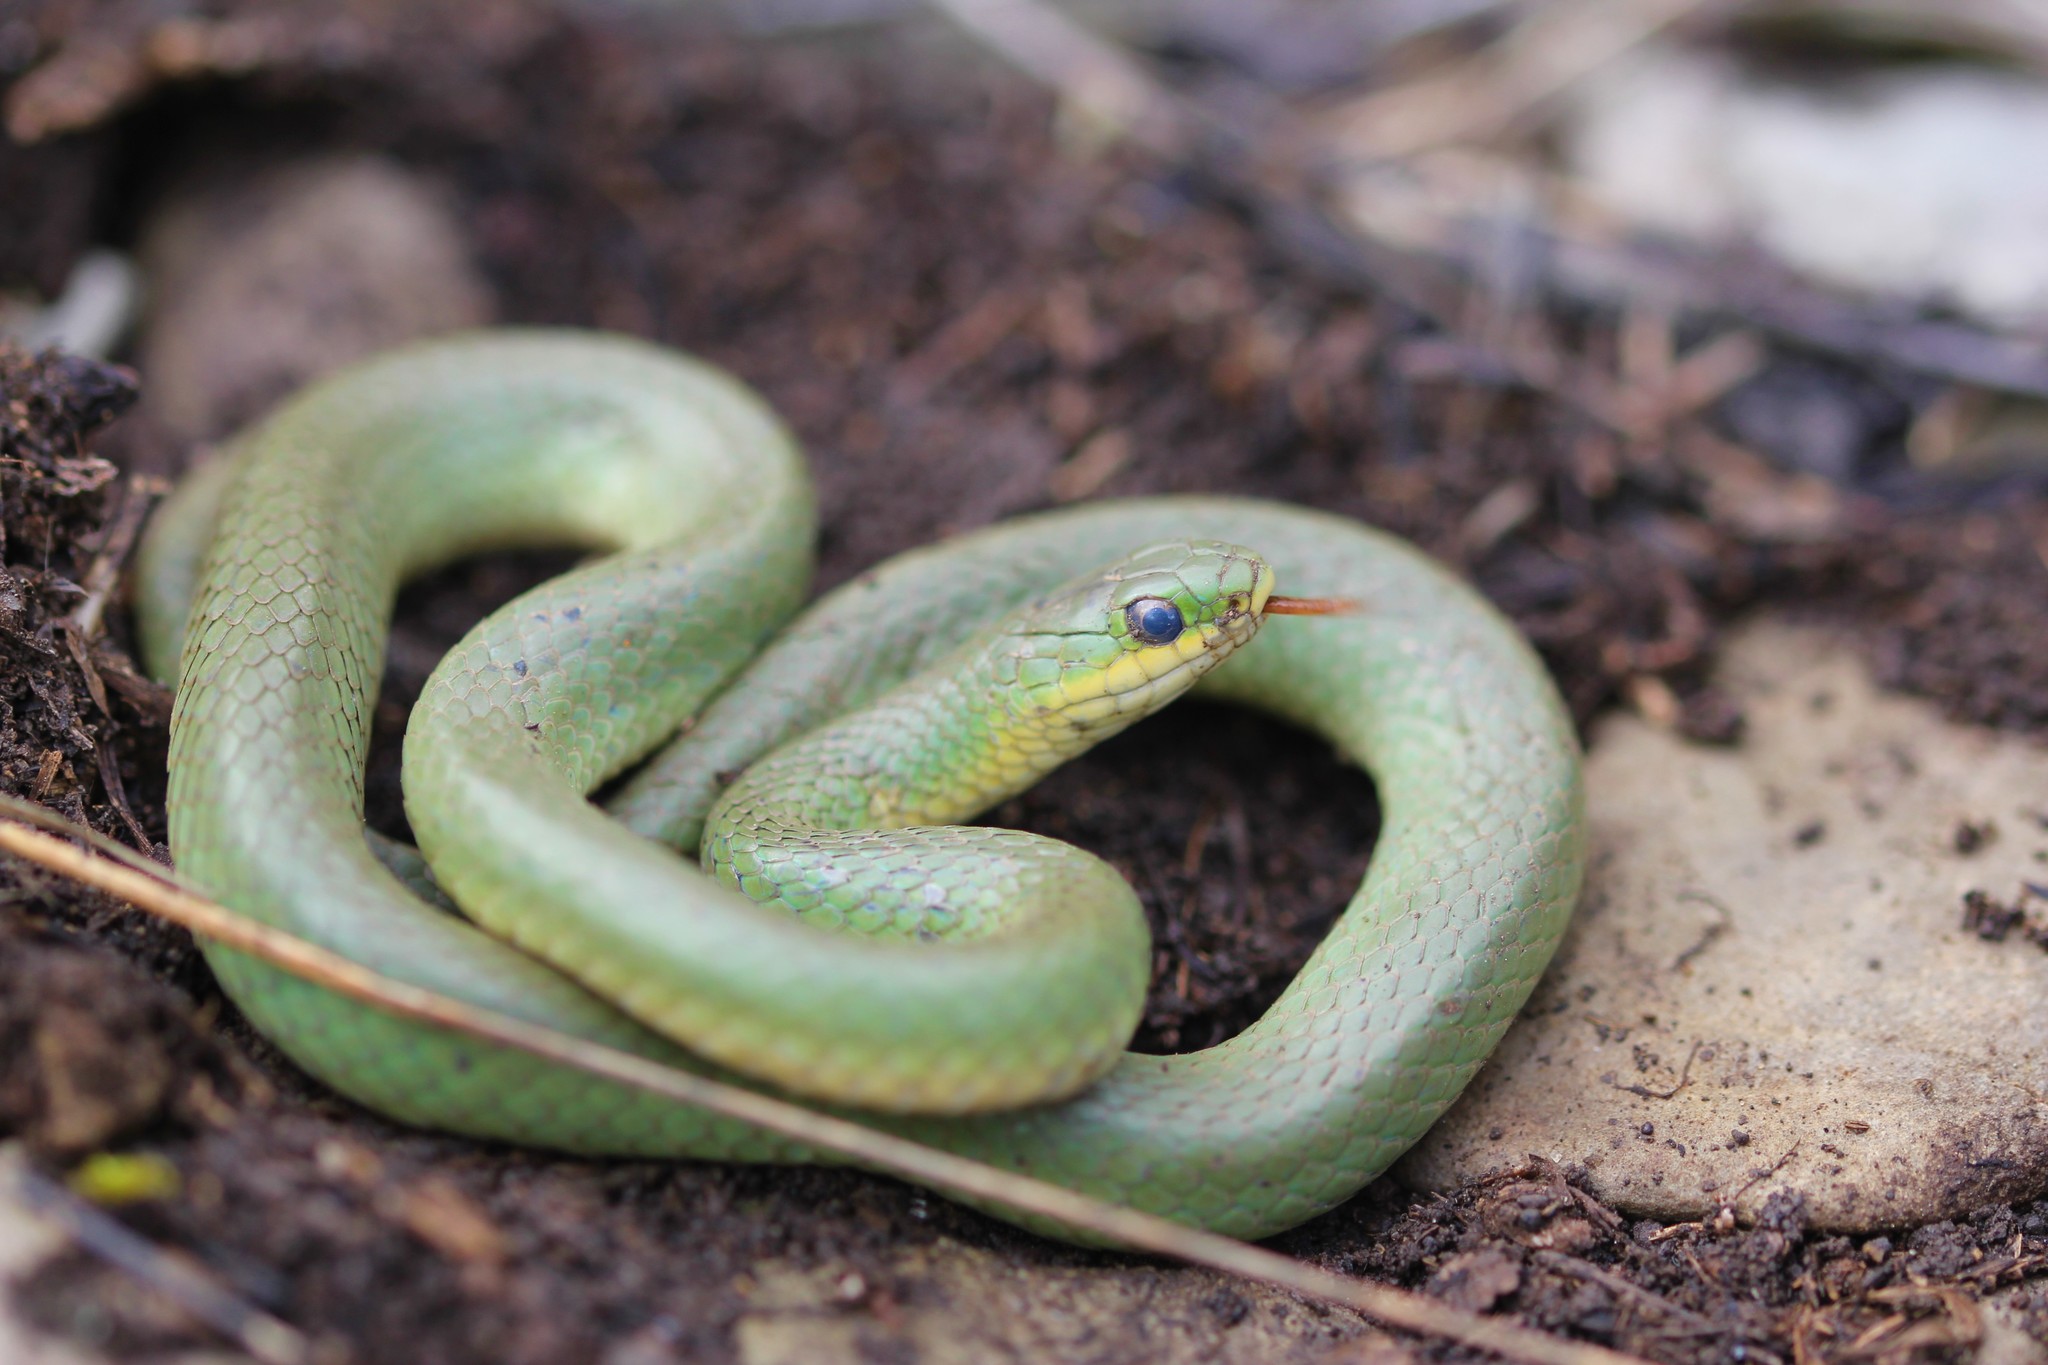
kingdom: Animalia
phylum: Chordata
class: Squamata
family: Colubridae
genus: Opheodrys
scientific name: Opheodrys vernalis
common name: Smooth green snake
